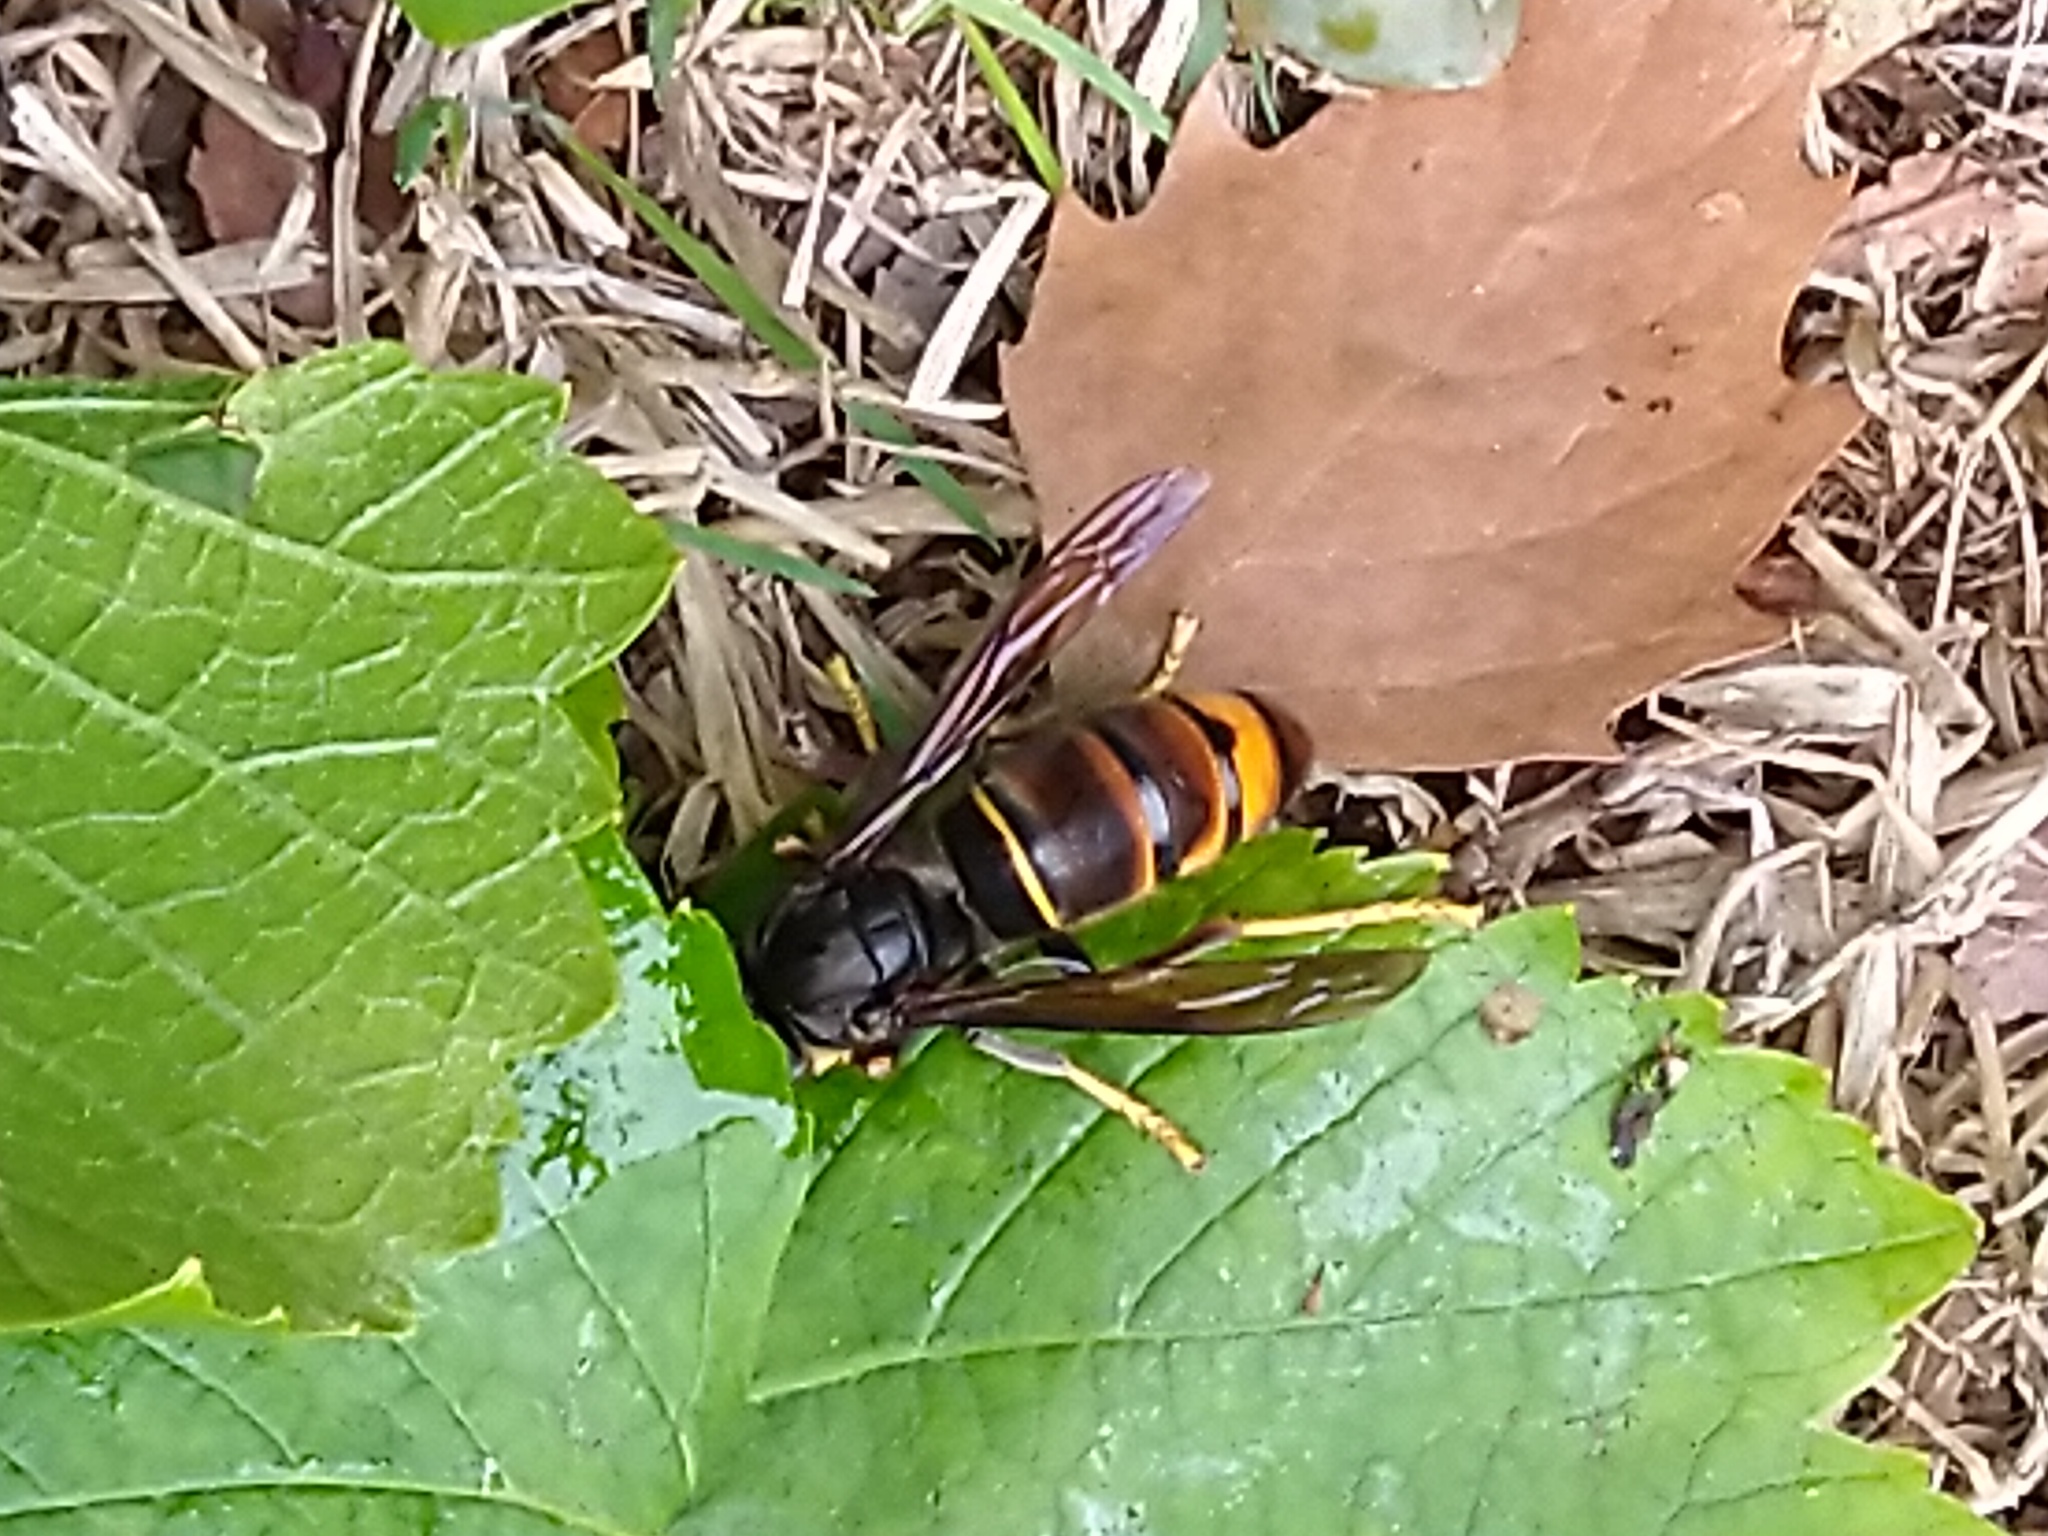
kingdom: Animalia
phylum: Arthropoda
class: Insecta
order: Hymenoptera
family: Vespidae
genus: Vespa
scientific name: Vespa velutina
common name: Asian hornet
